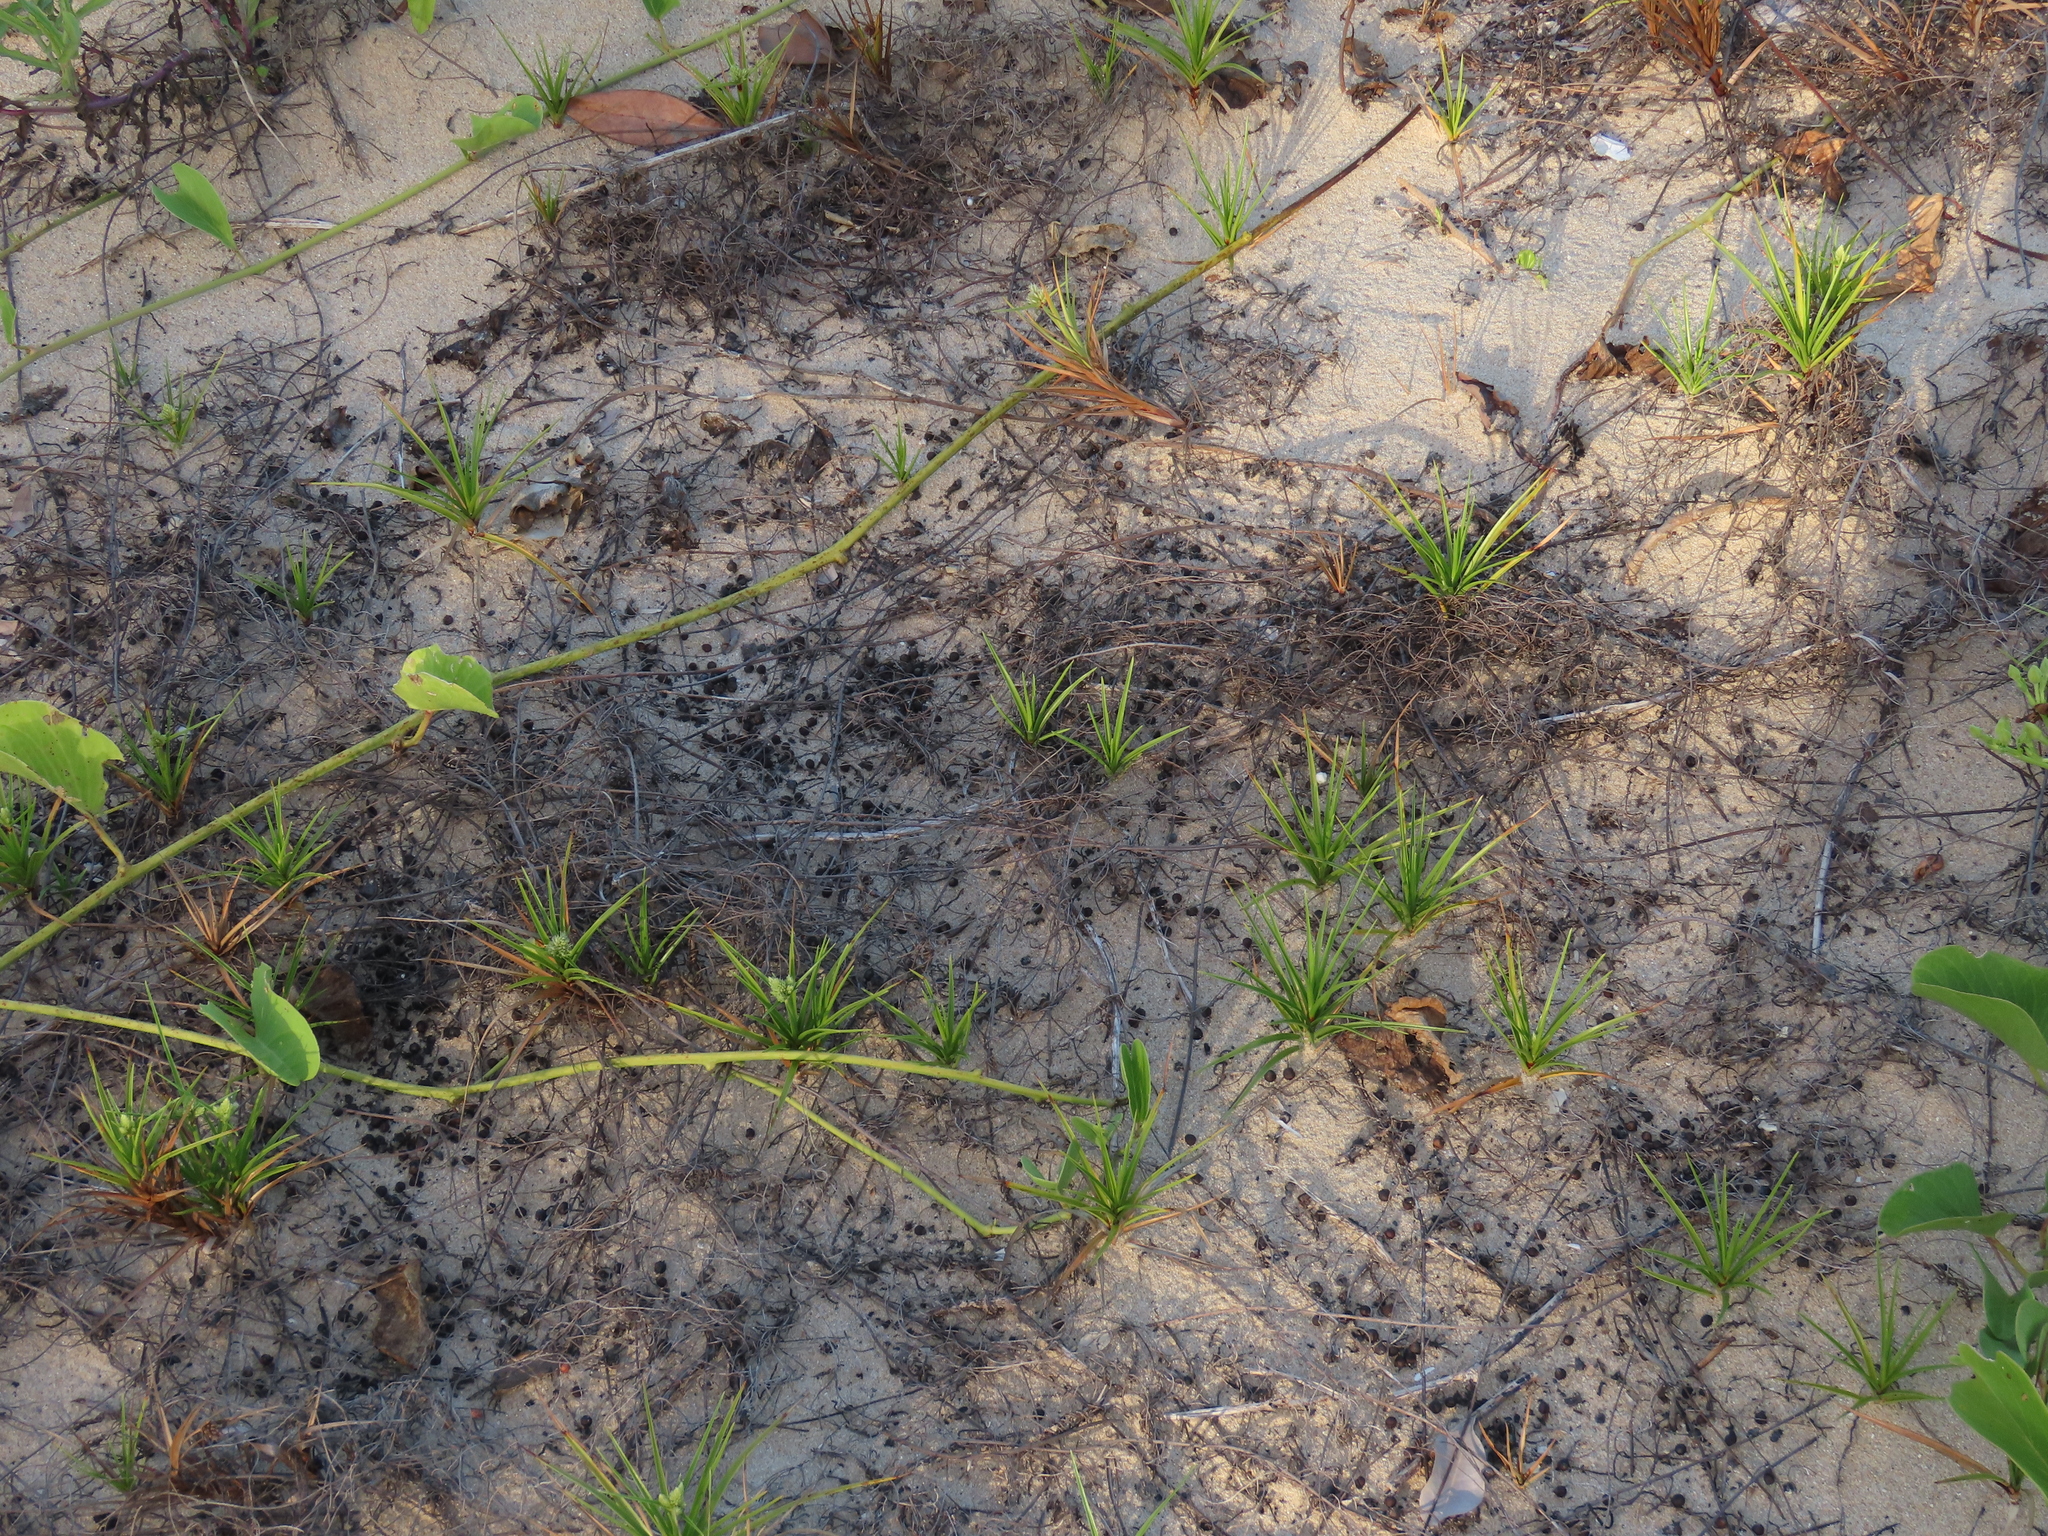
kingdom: Plantae
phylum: Tracheophyta
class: Magnoliopsida
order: Laurales
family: Lauraceae
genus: Cassytha
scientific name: Cassytha filiformis
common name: Dodder-laurel
